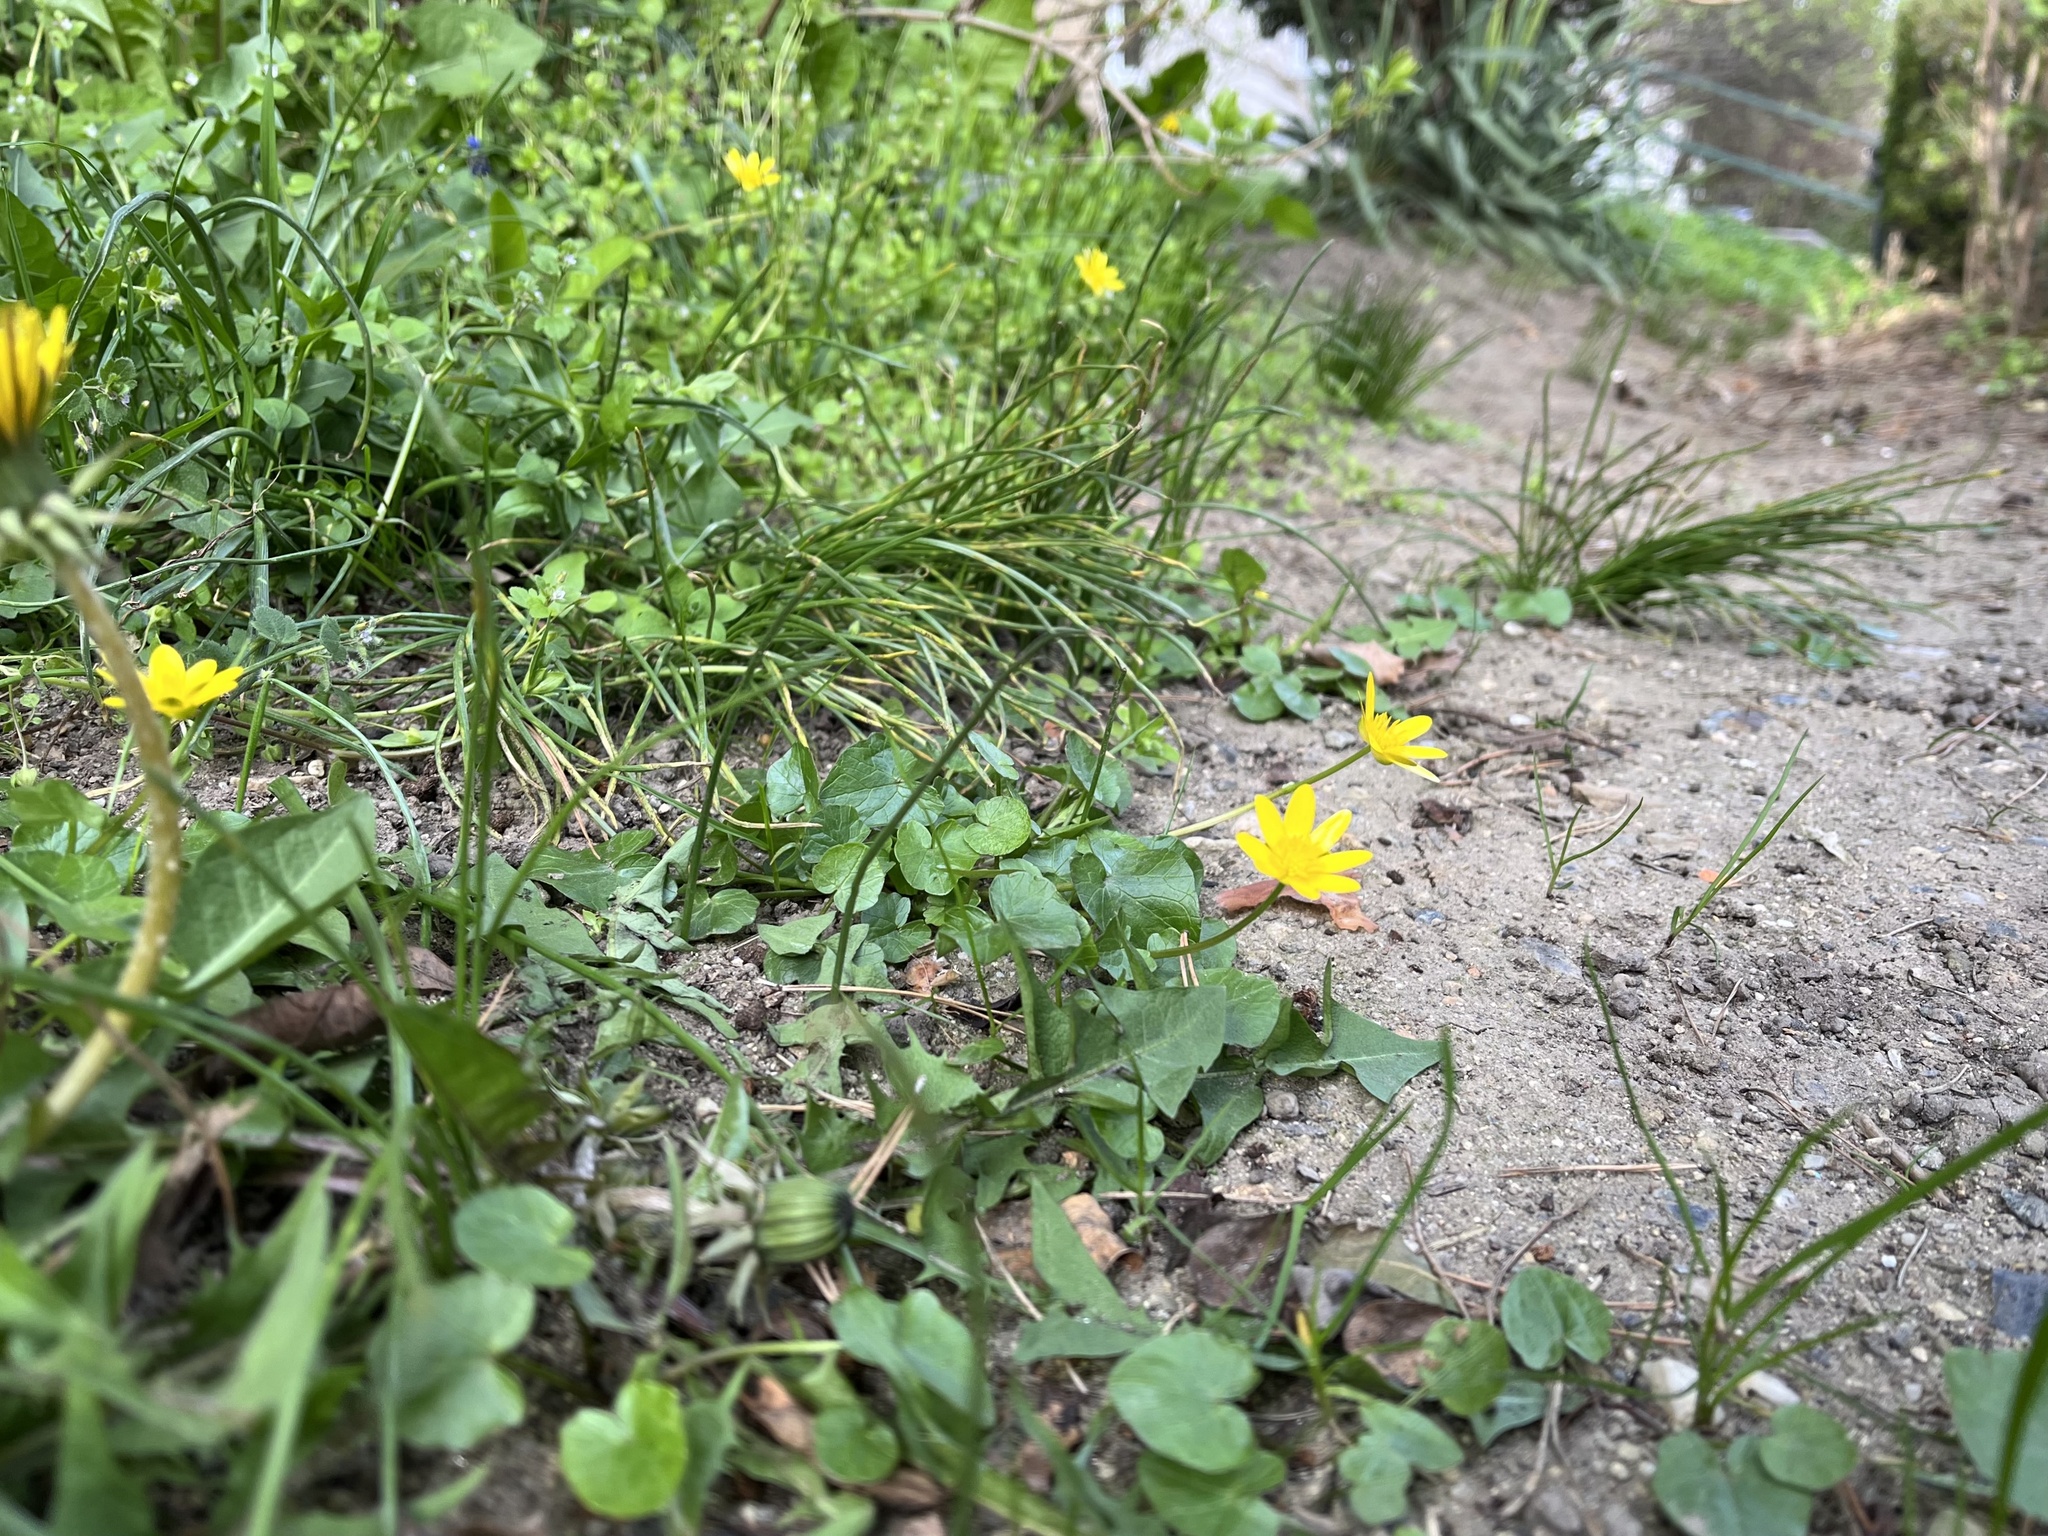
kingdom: Plantae
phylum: Tracheophyta
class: Magnoliopsida
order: Ranunculales
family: Ranunculaceae
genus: Ficaria
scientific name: Ficaria verna
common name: Lesser celandine
